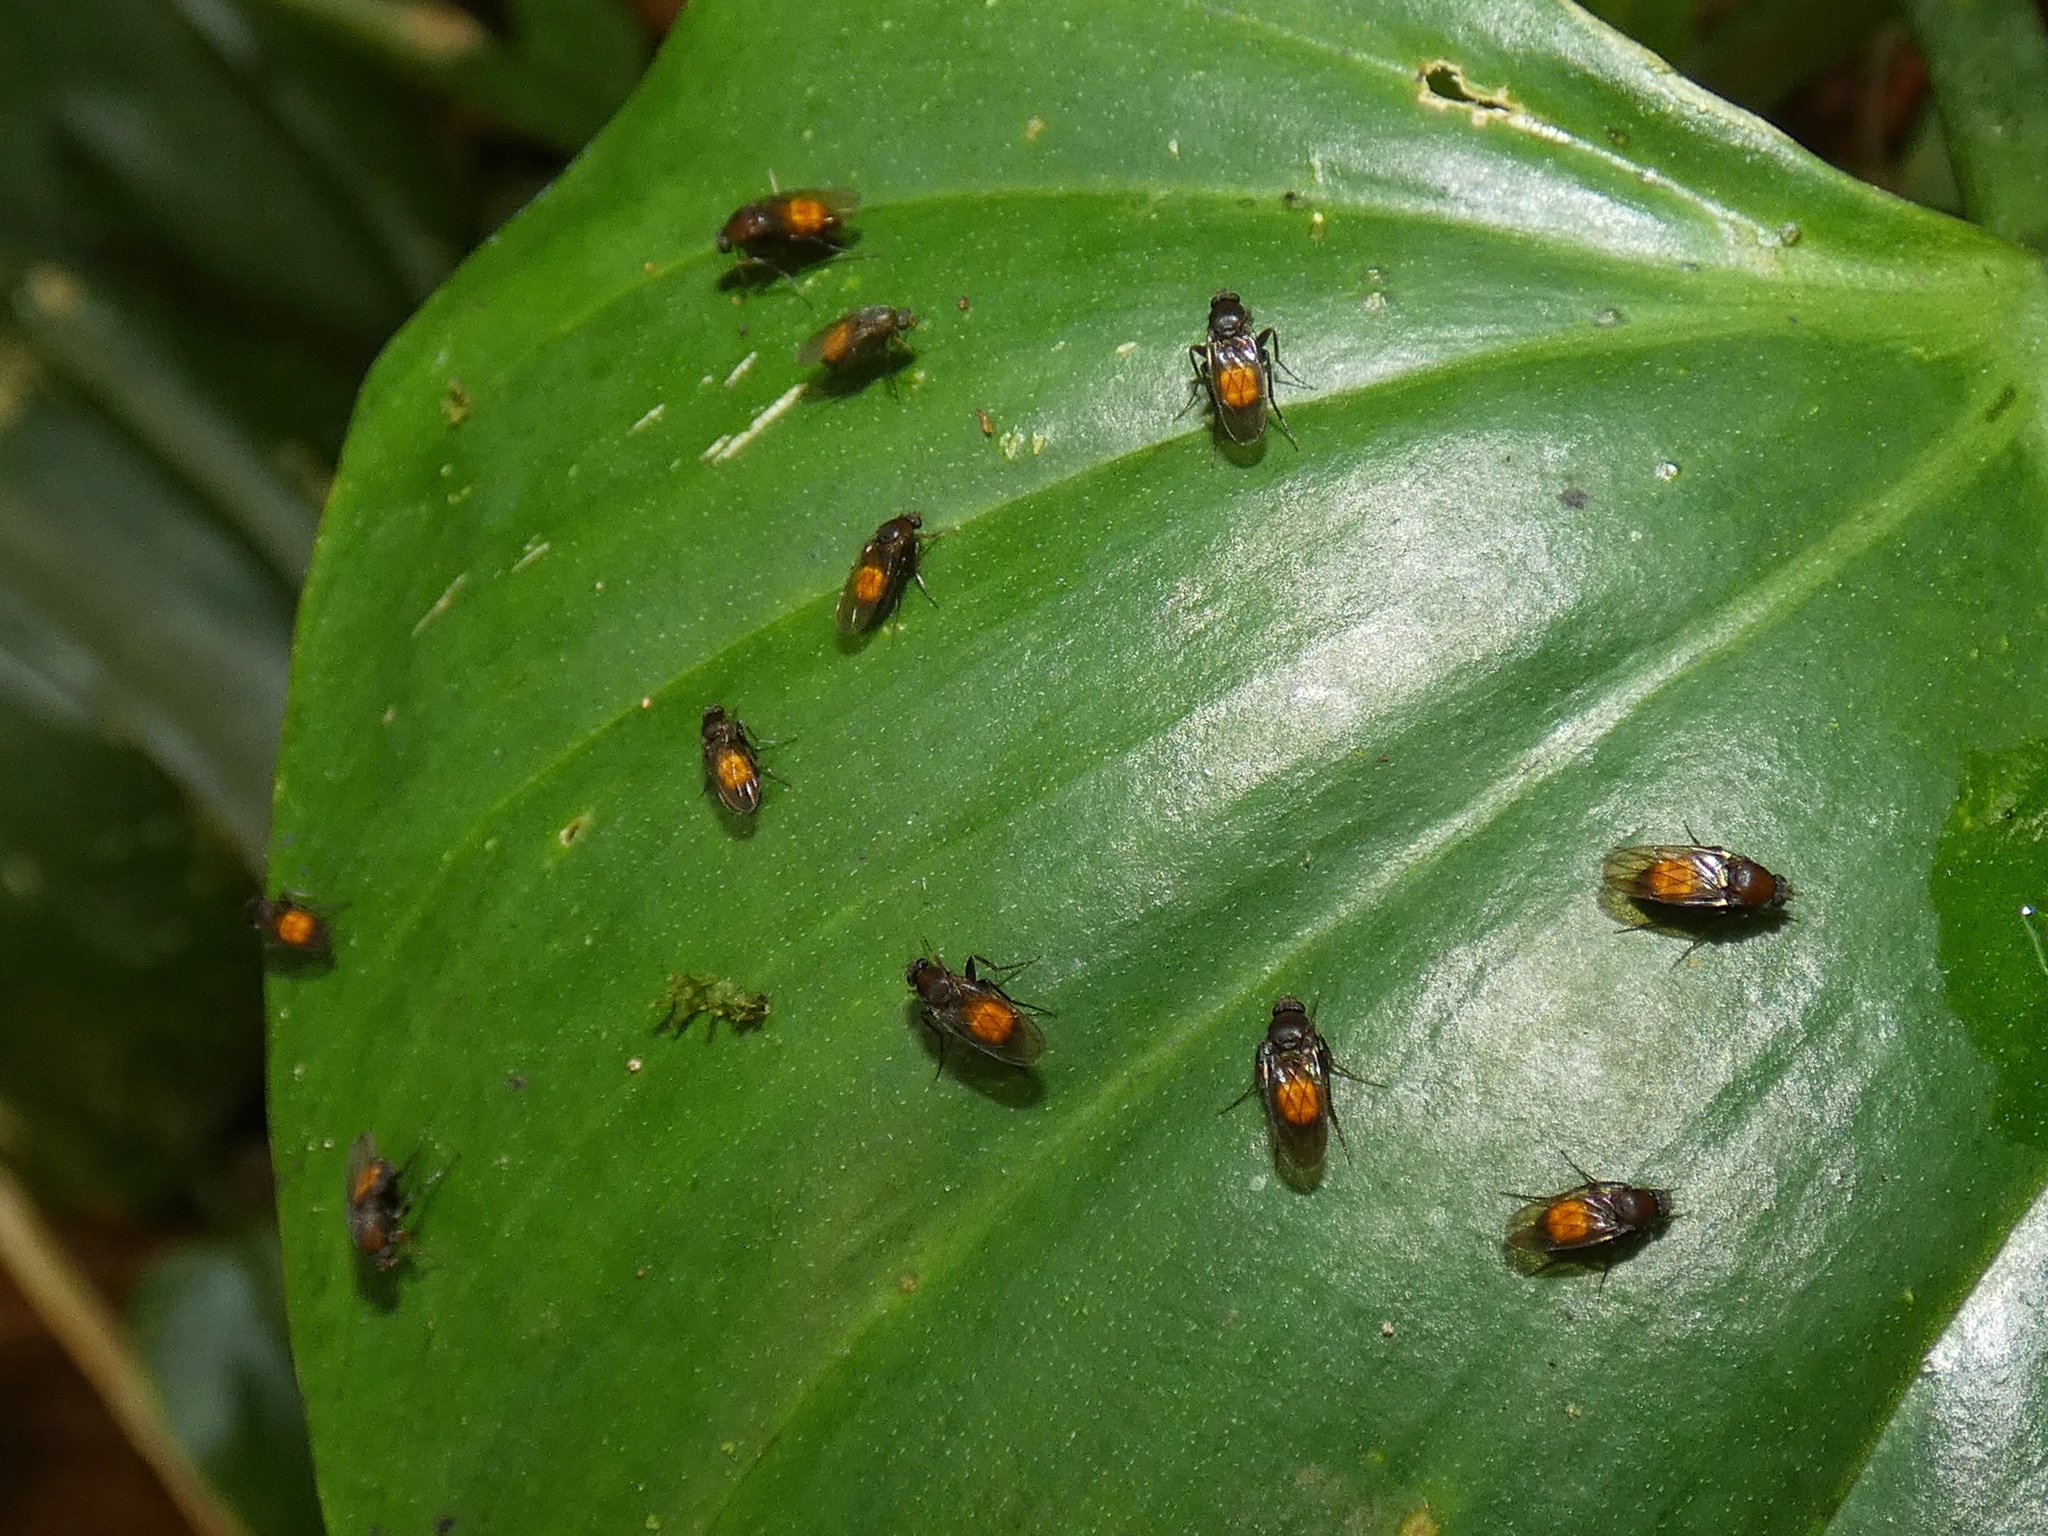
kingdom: Animalia
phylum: Arthropoda
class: Insecta
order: Diptera
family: Phoridae
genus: Megaselia
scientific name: Megaselia rubronigra
